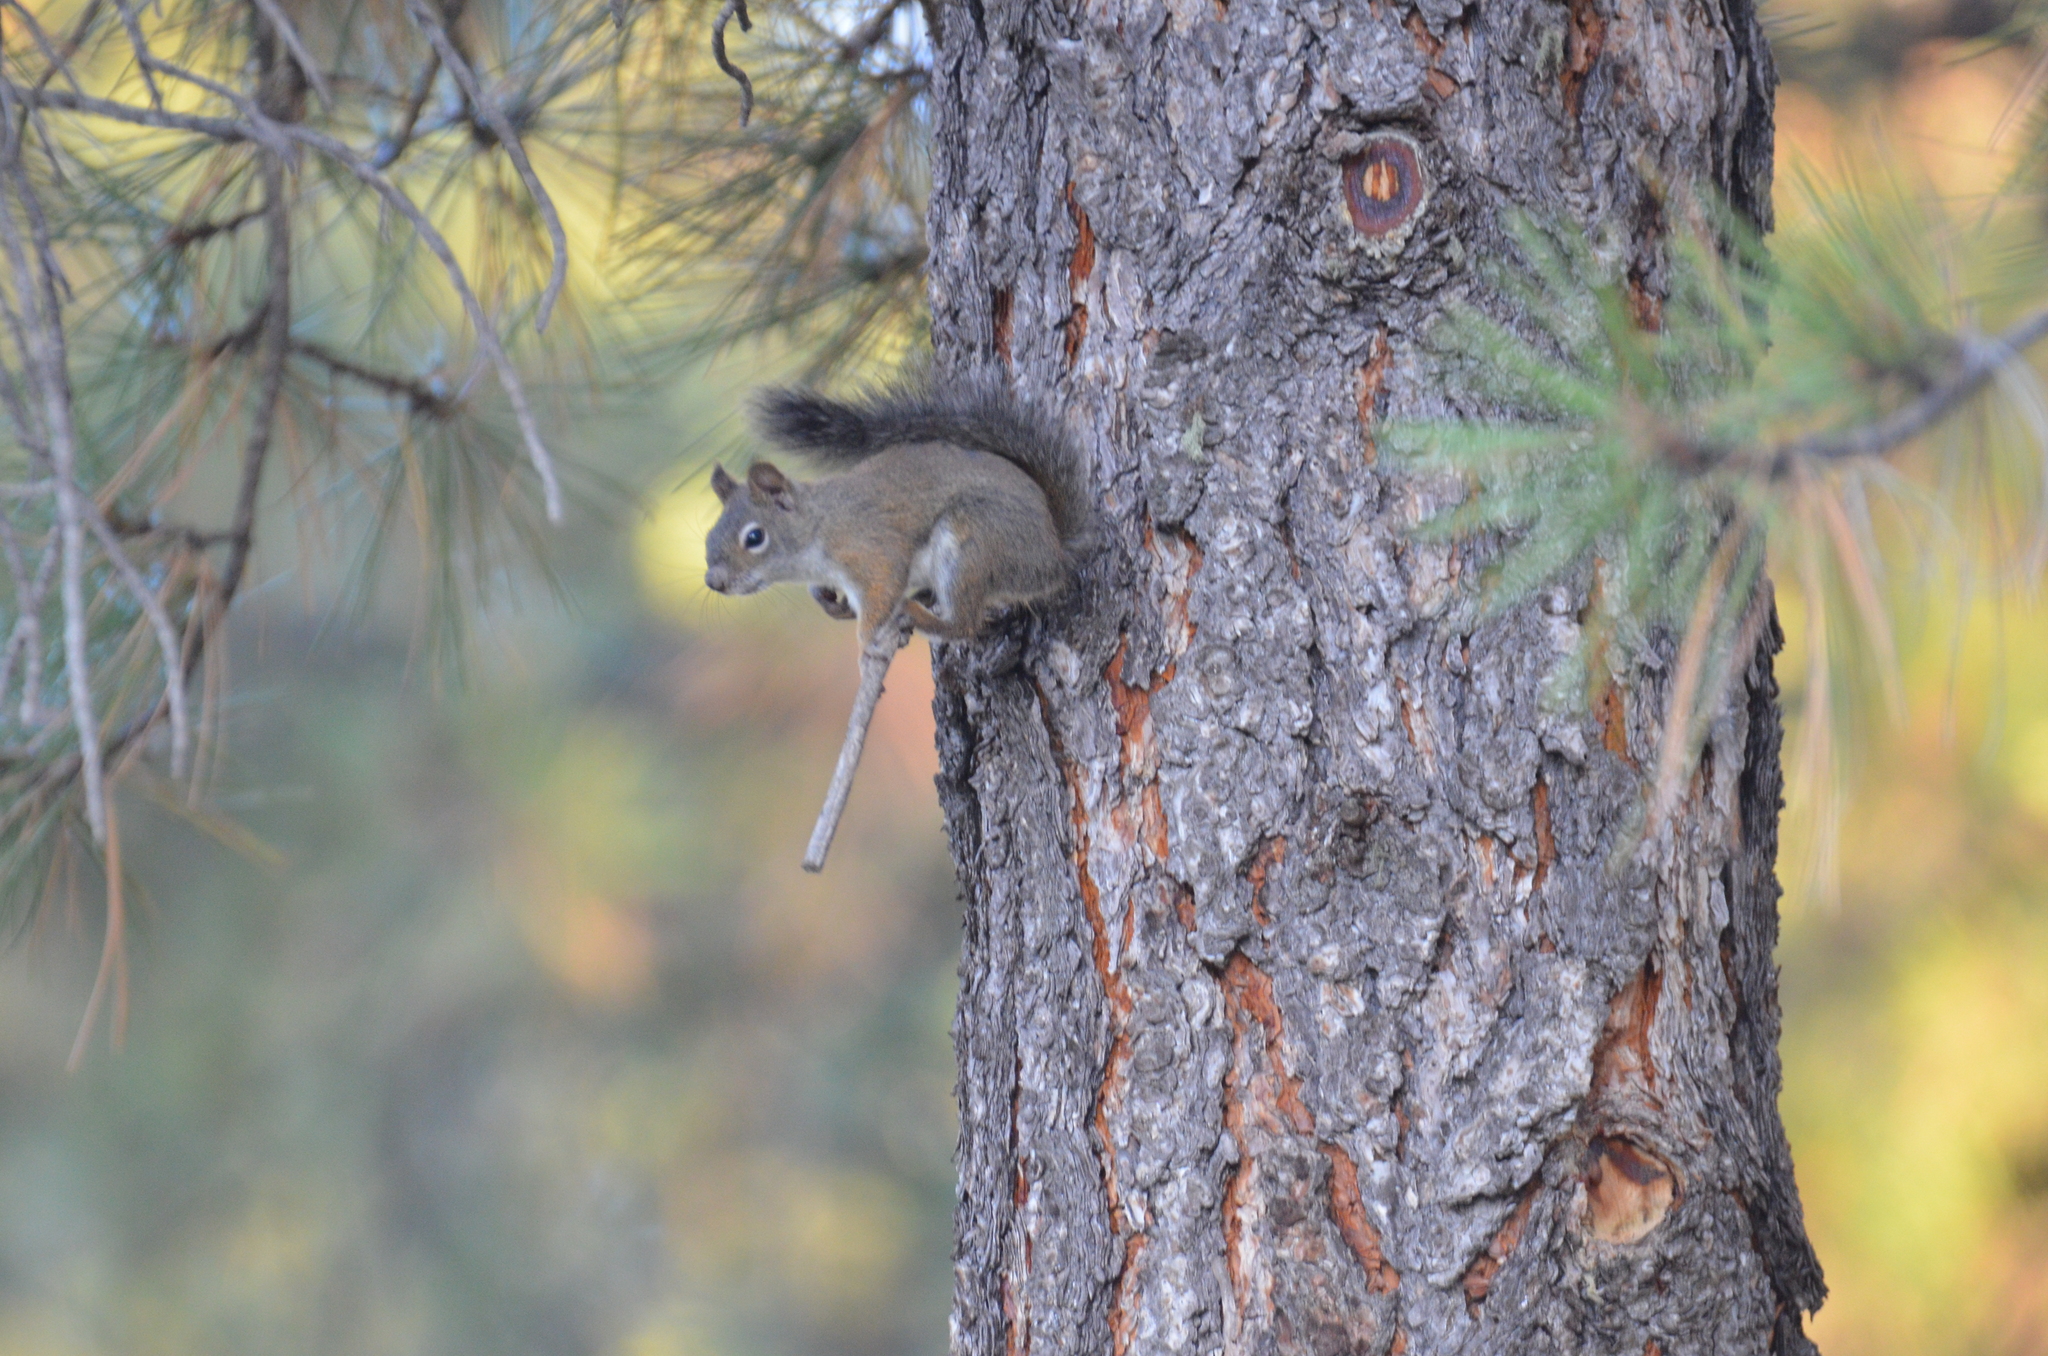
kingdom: Animalia
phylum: Chordata
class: Mammalia
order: Rodentia
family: Sciuridae
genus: Tamiasciurus
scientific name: Tamiasciurus hudsonicus
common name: Red squirrel
